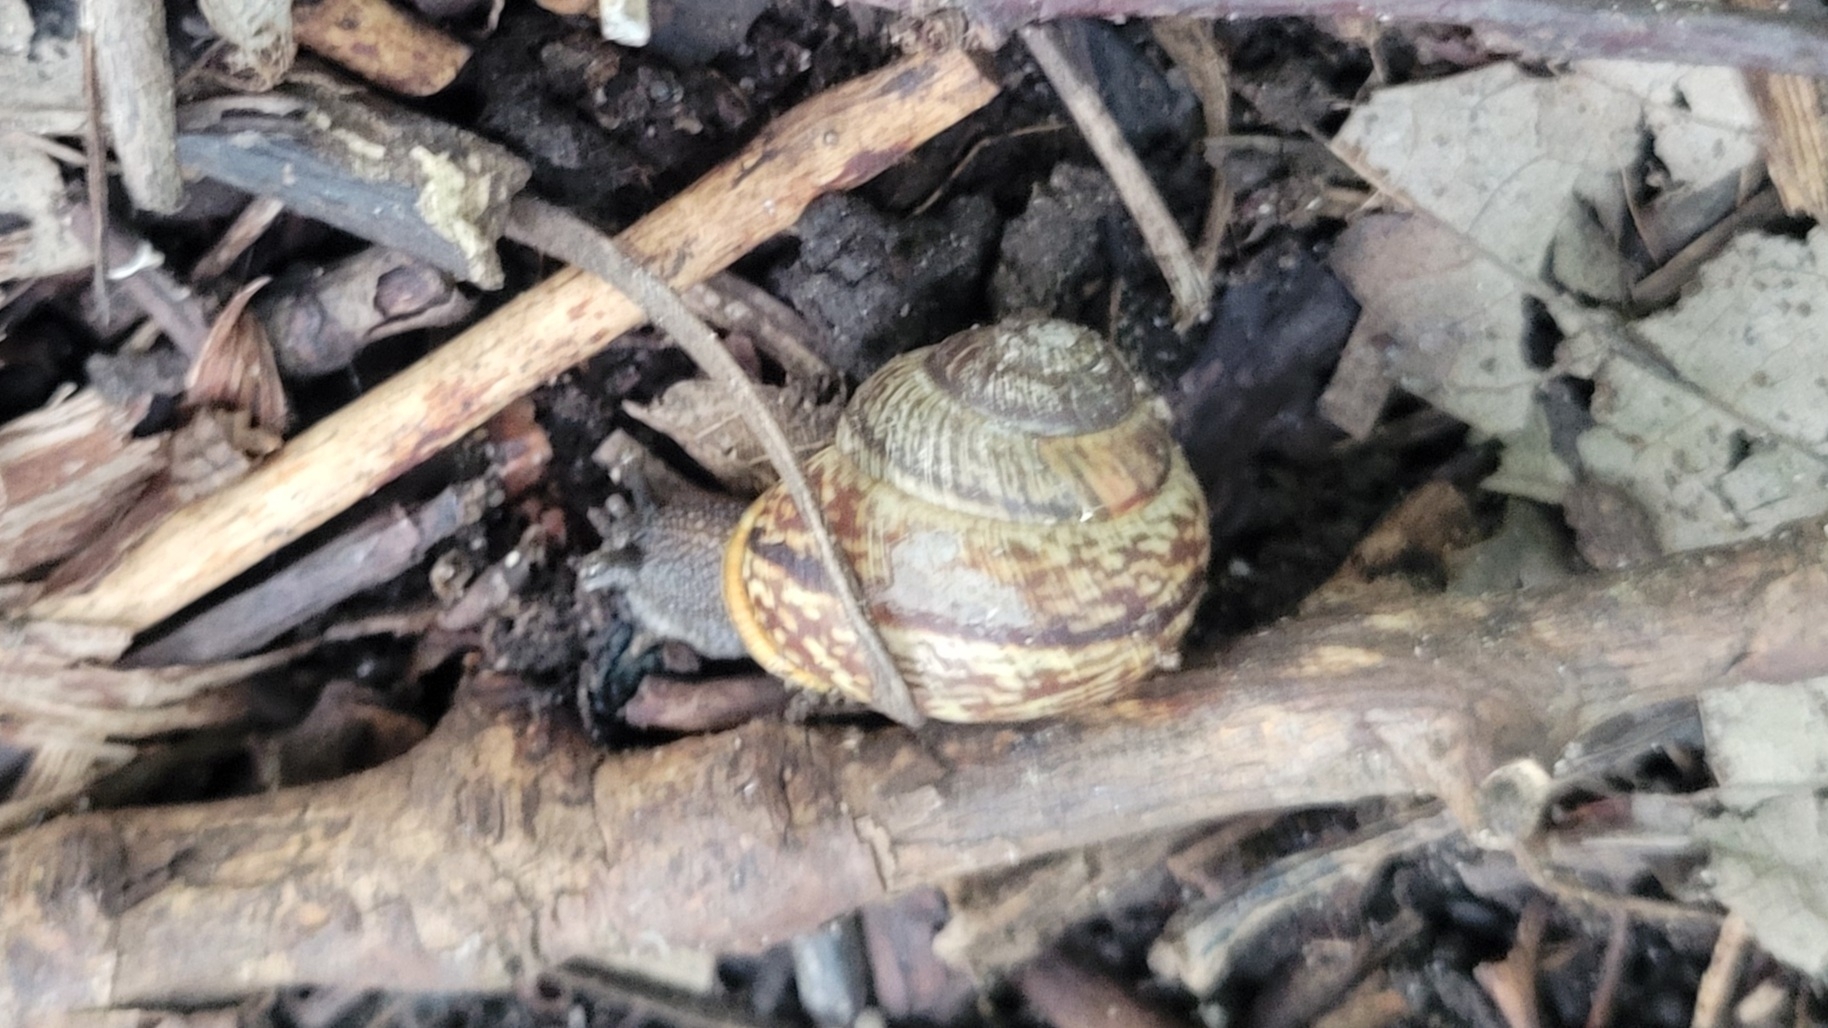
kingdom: Animalia
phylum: Mollusca
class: Gastropoda
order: Stylommatophora
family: Helicidae
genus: Arianta
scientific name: Arianta arbustorum
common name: Copse snail
